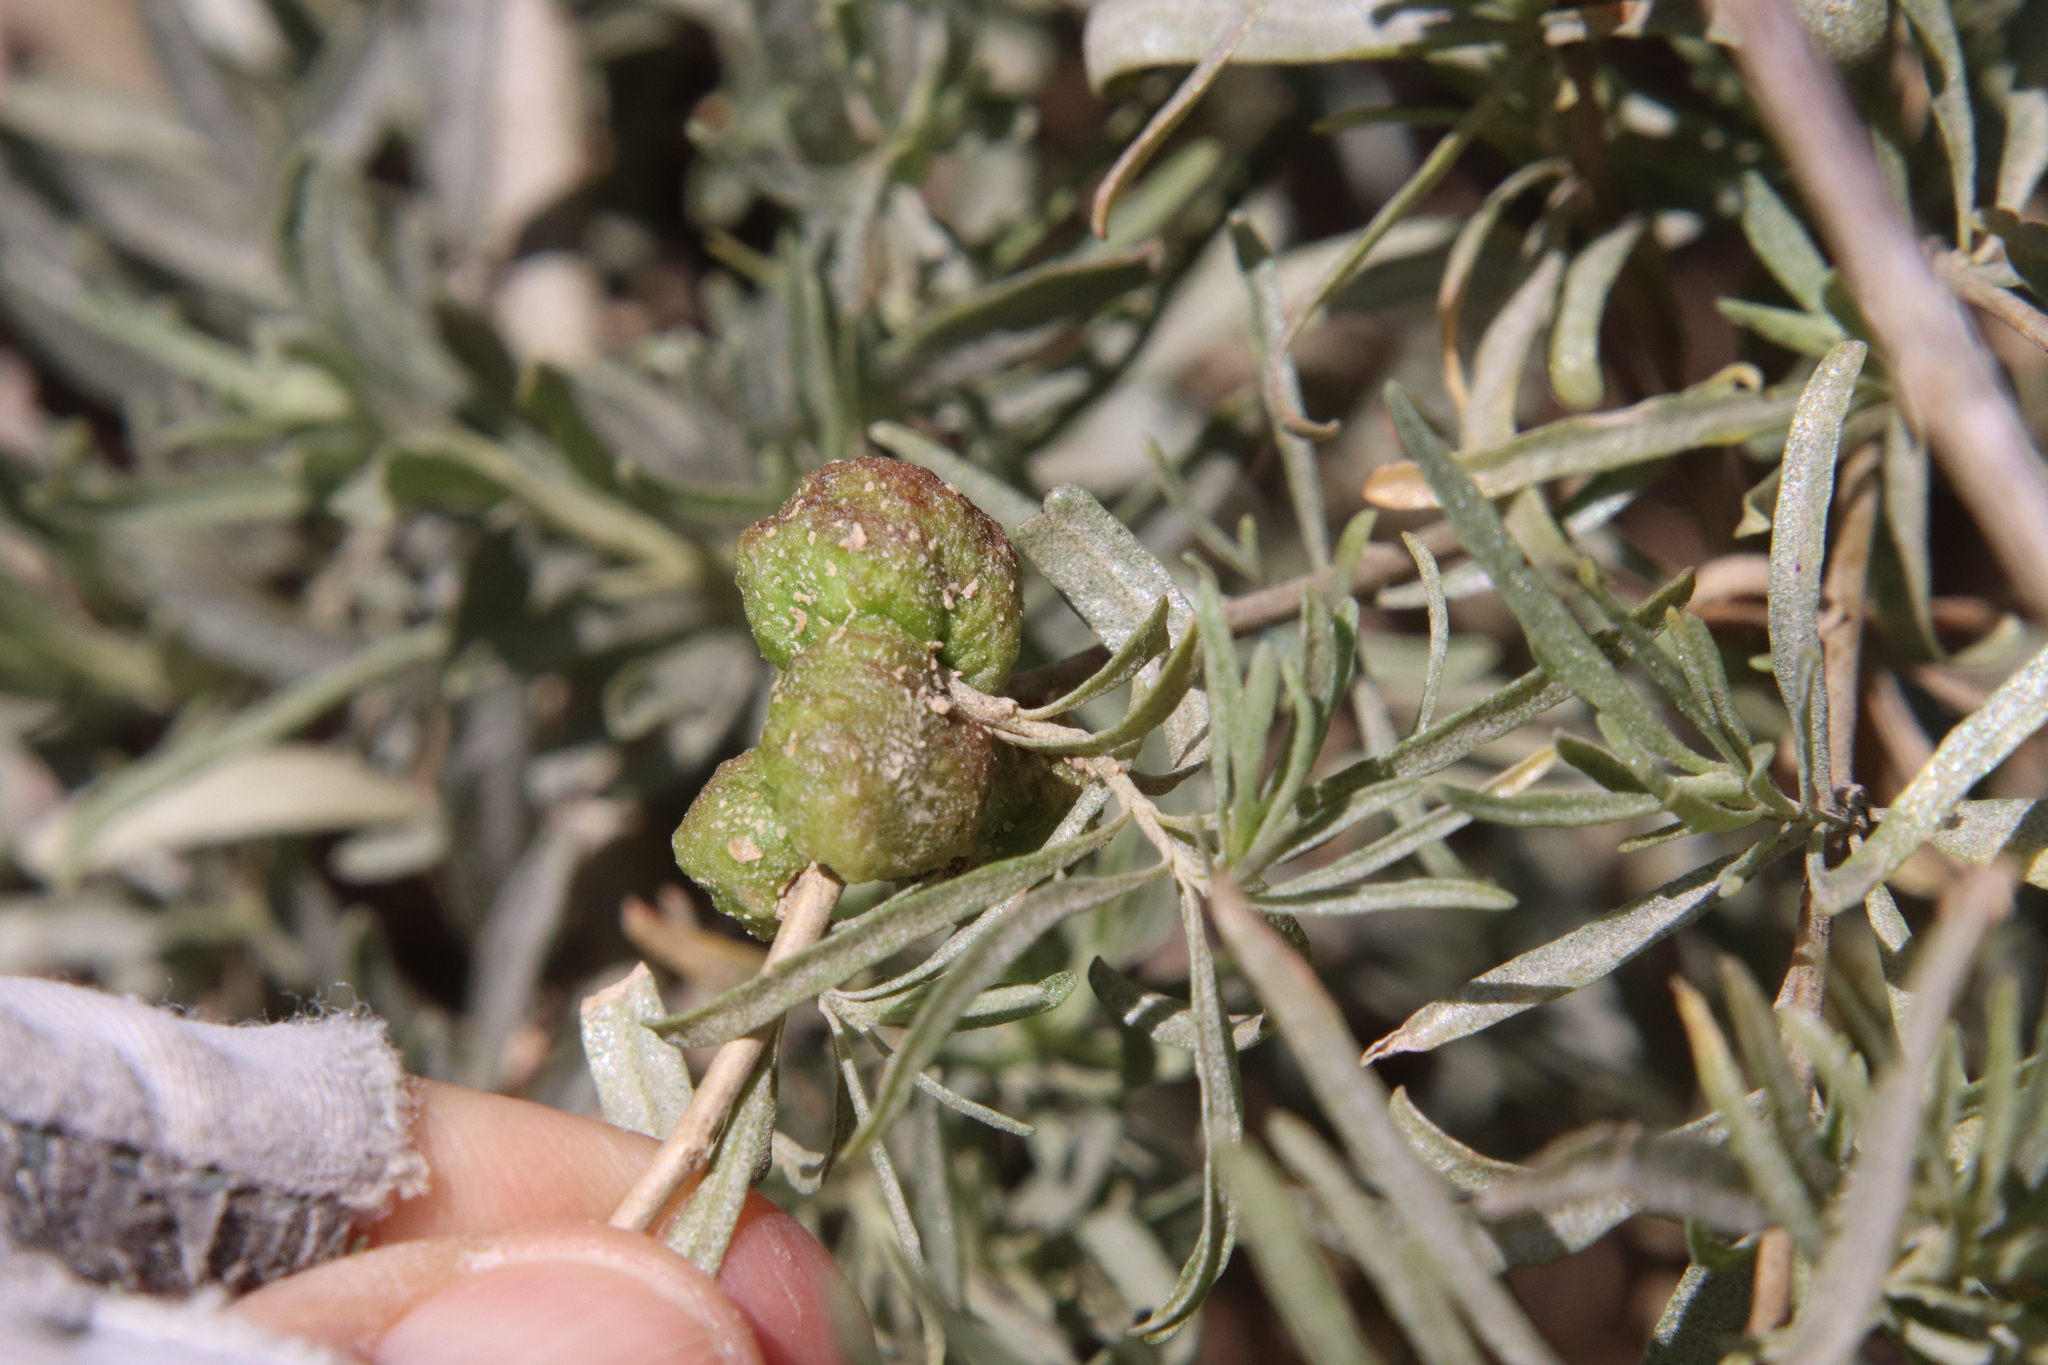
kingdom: Plantae
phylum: Tracheophyta
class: Magnoliopsida
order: Caryophyllales
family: Amaranthaceae
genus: Atriplex
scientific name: Atriplex canescens
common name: Four-wing saltbush
